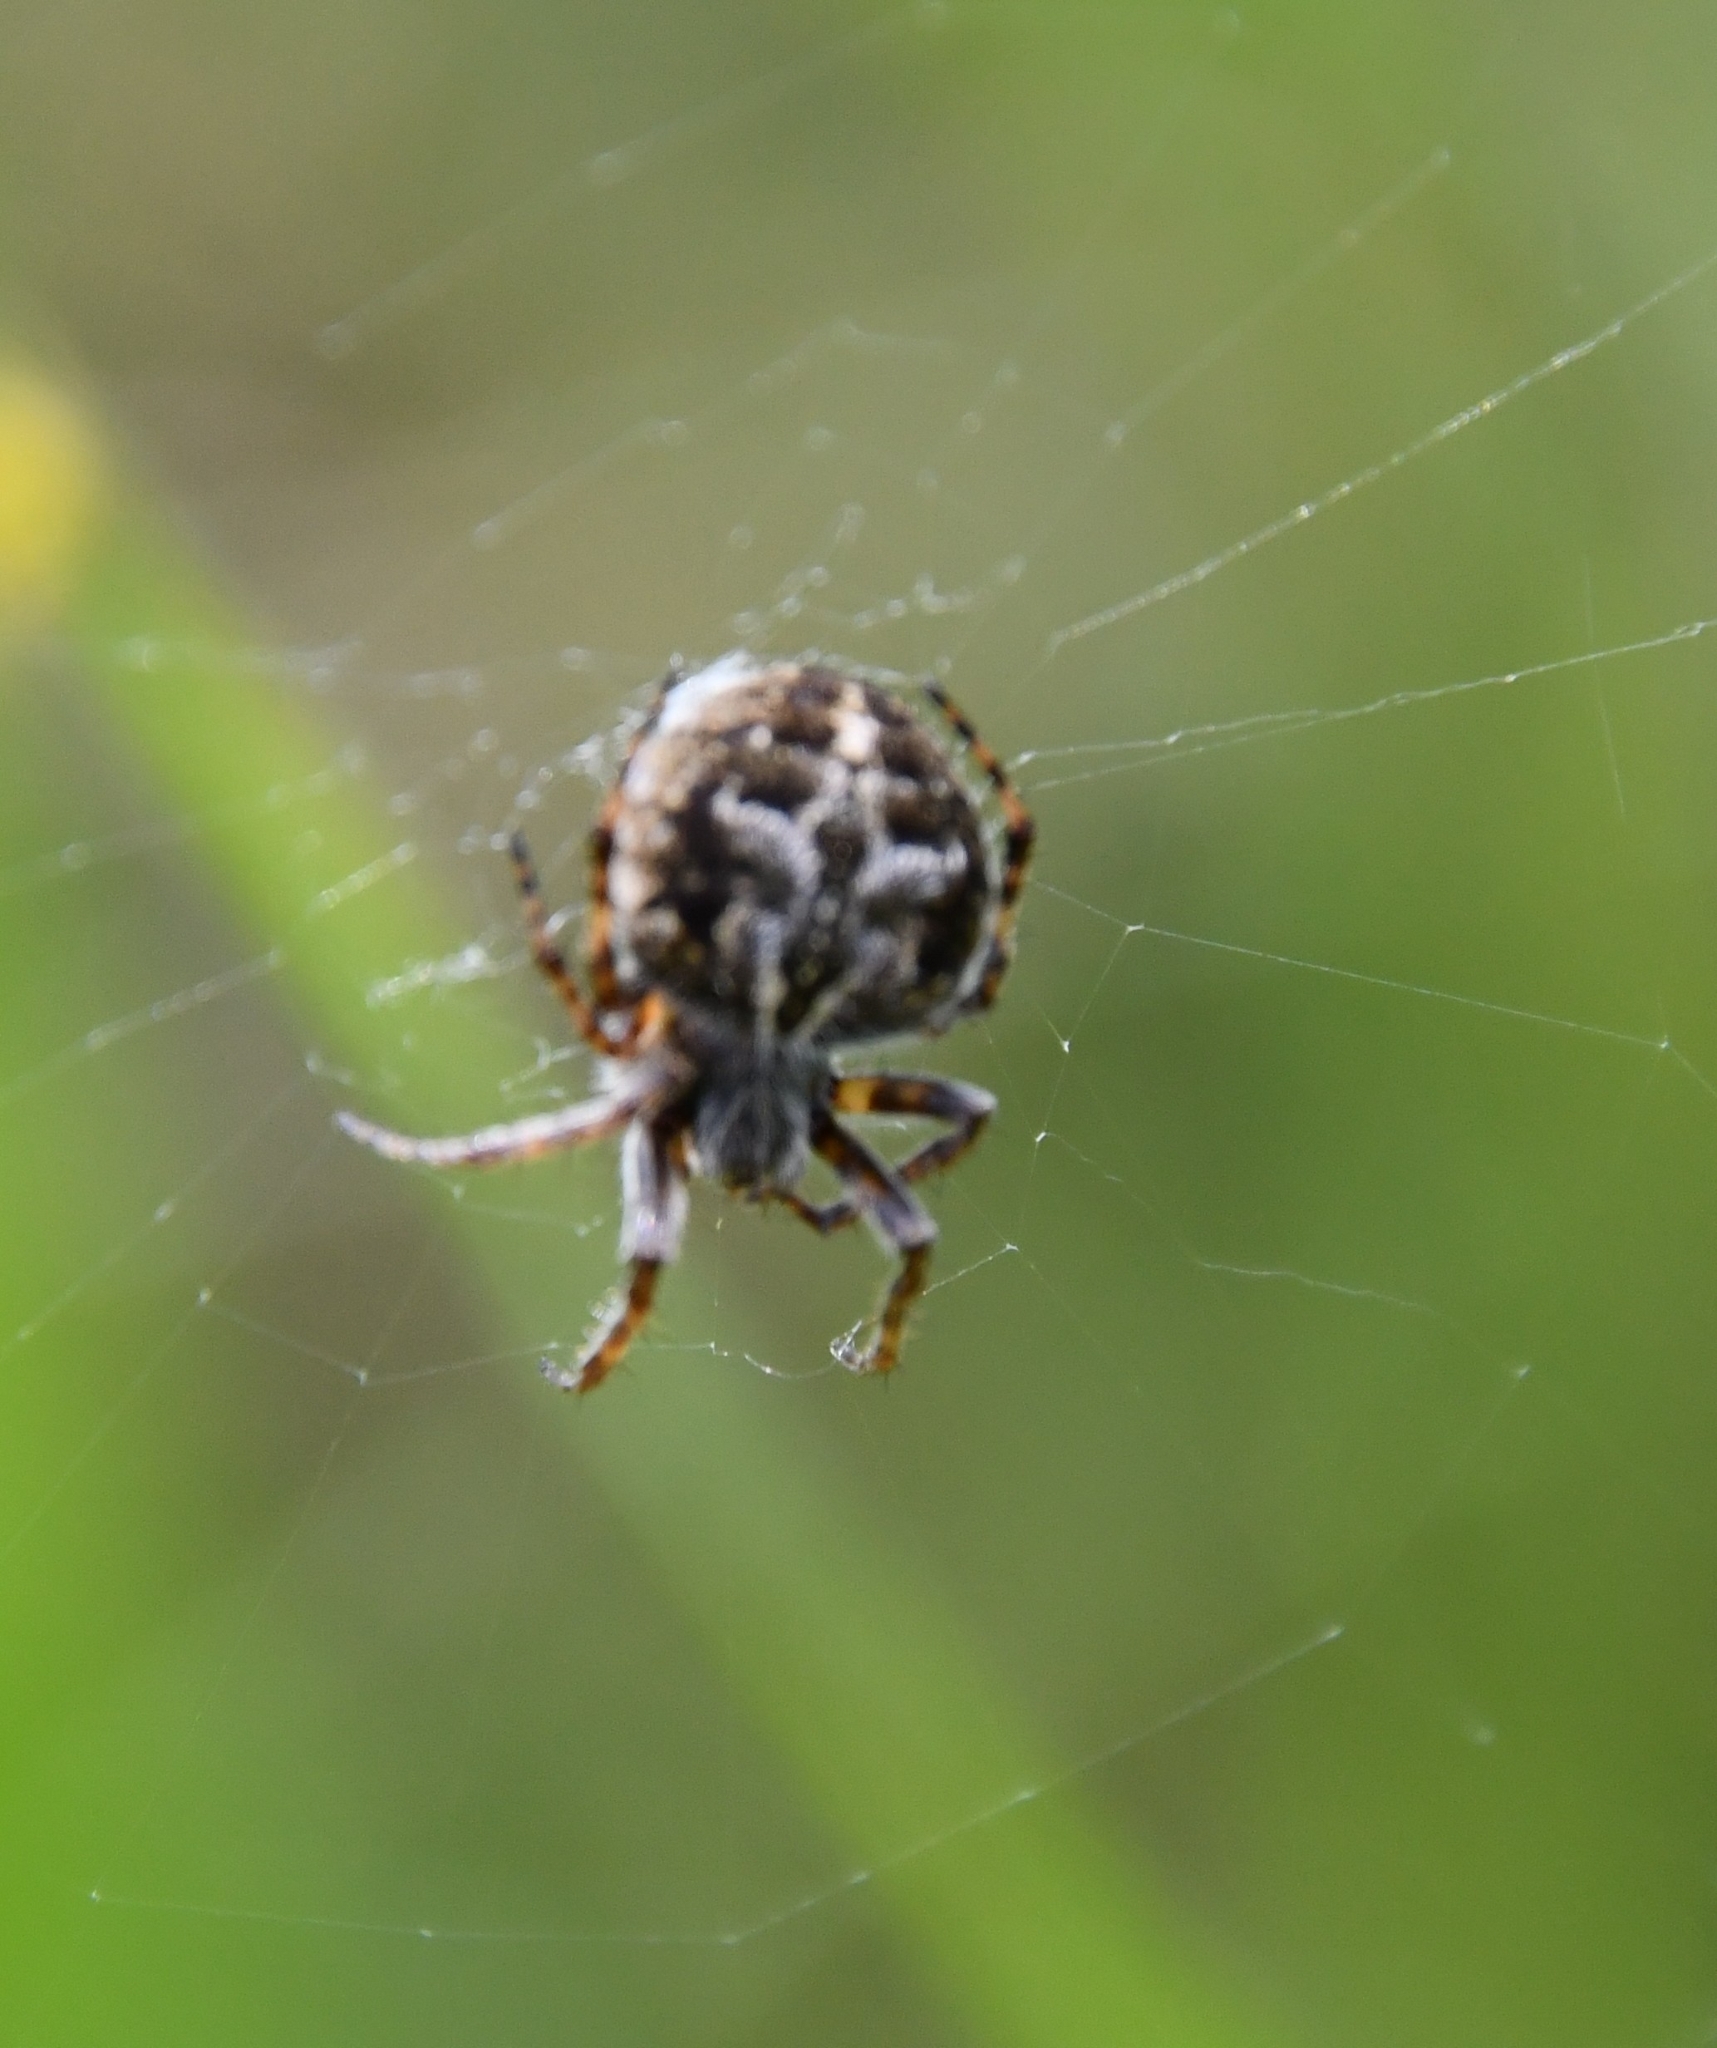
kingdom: Animalia
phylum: Arthropoda
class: Arachnida
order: Araneae
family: Araneidae
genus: Agalenatea
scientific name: Agalenatea redii
